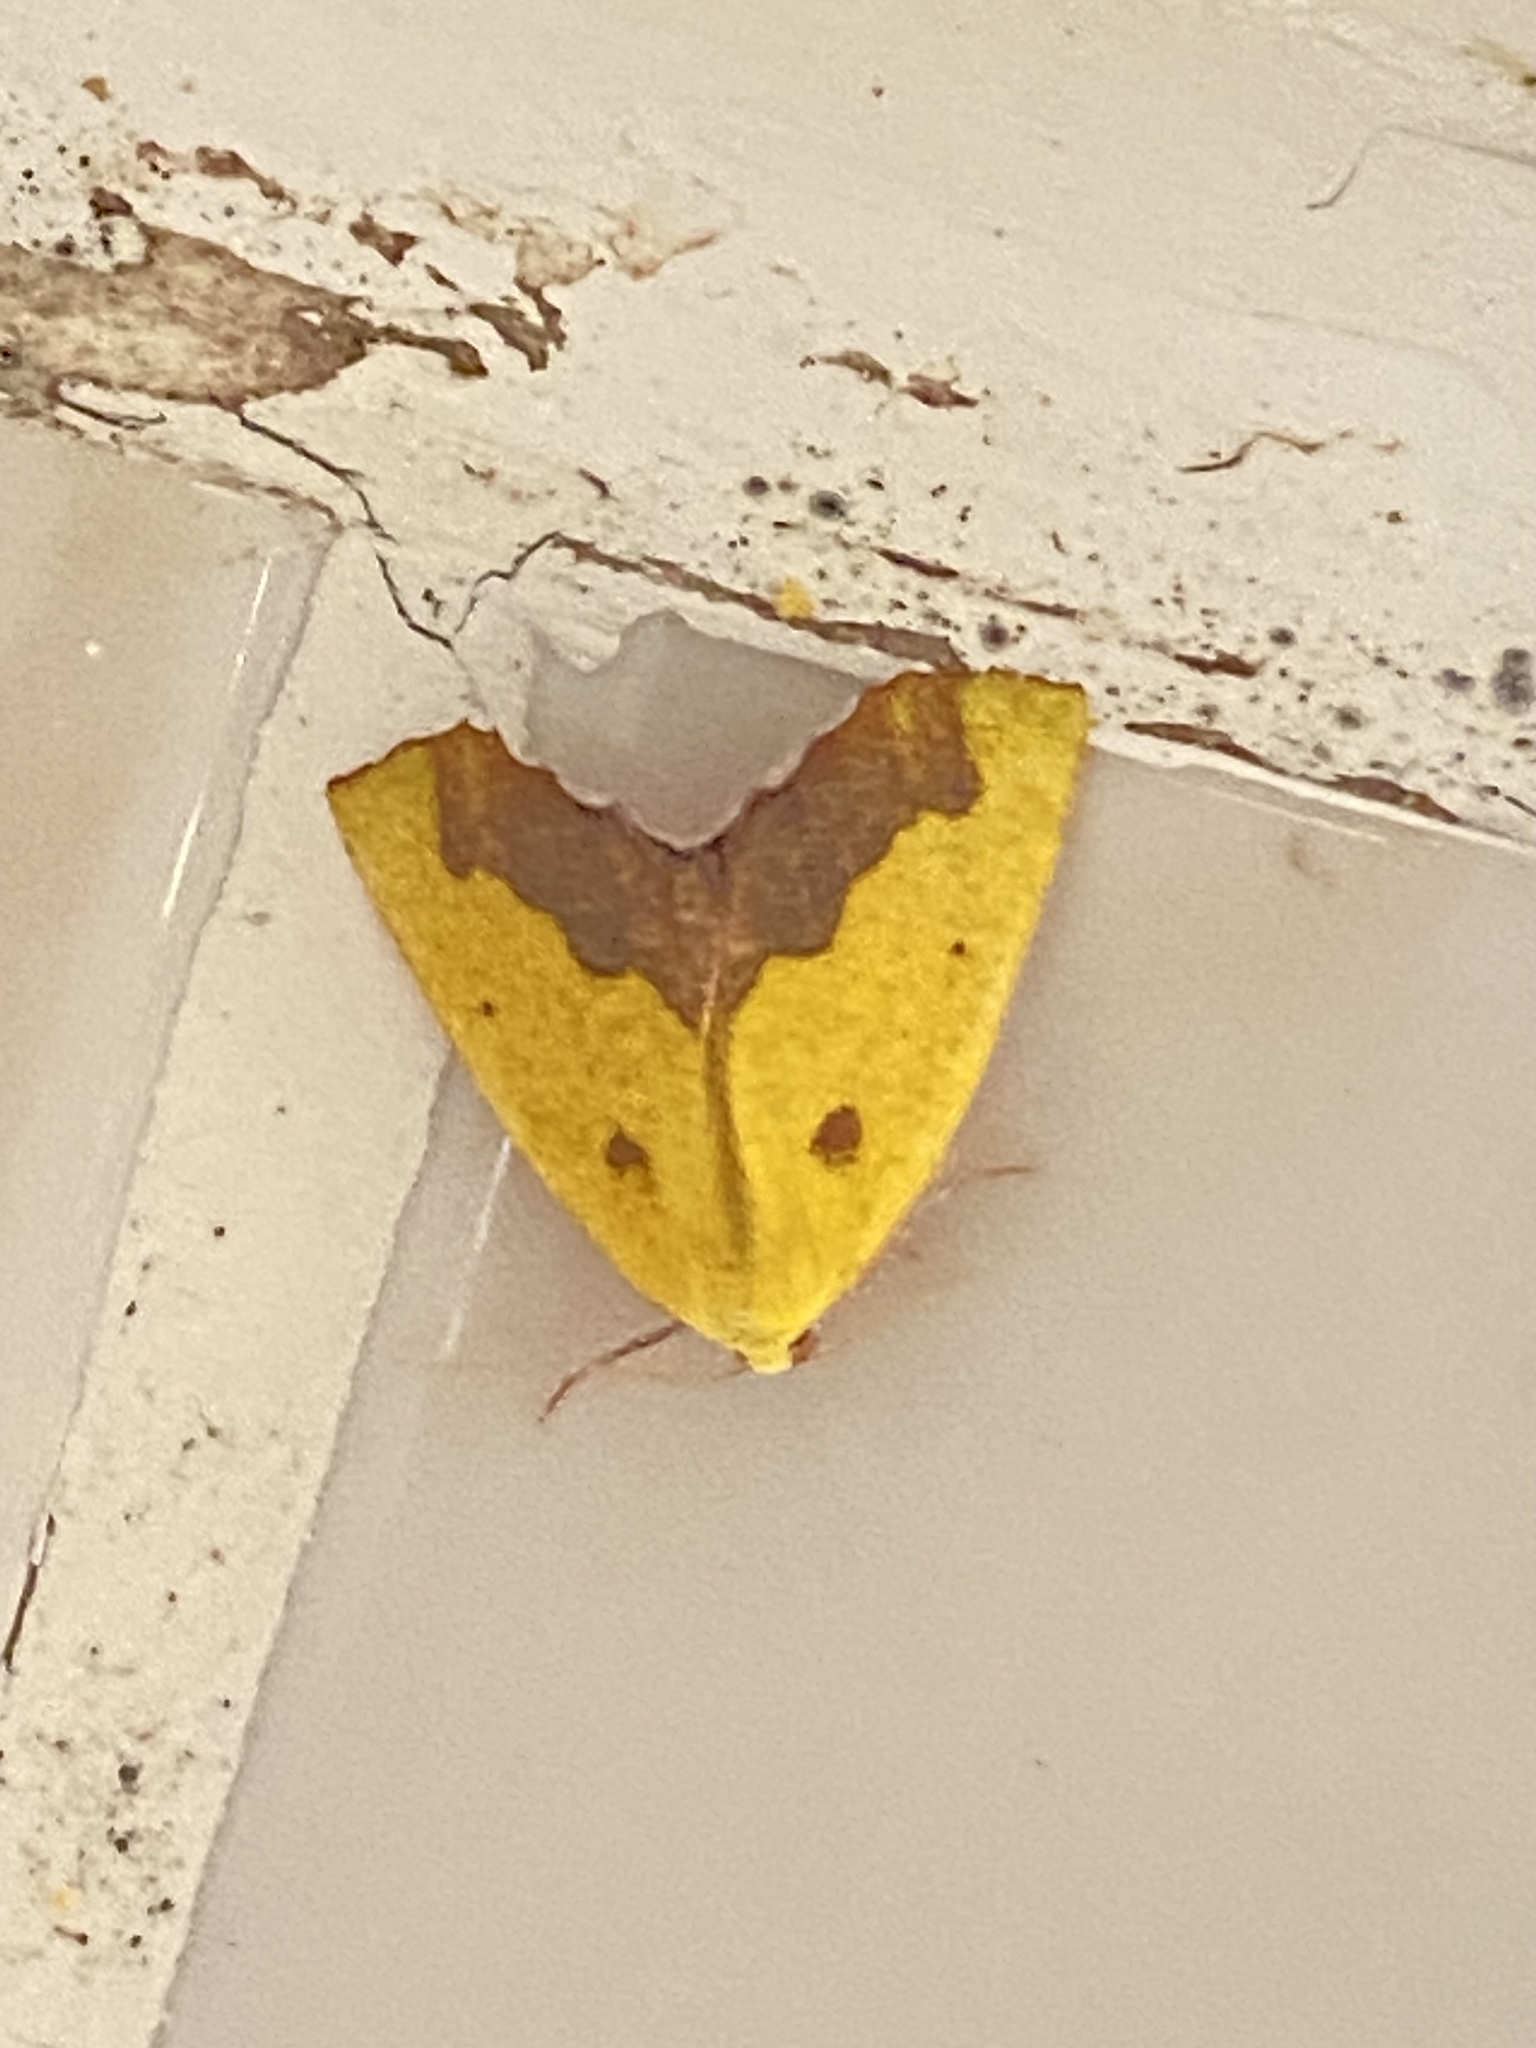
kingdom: Animalia
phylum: Arthropoda
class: Insecta
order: Lepidoptera
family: Geometridae
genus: Sicyodes
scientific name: Sicyodes cambogiaria
